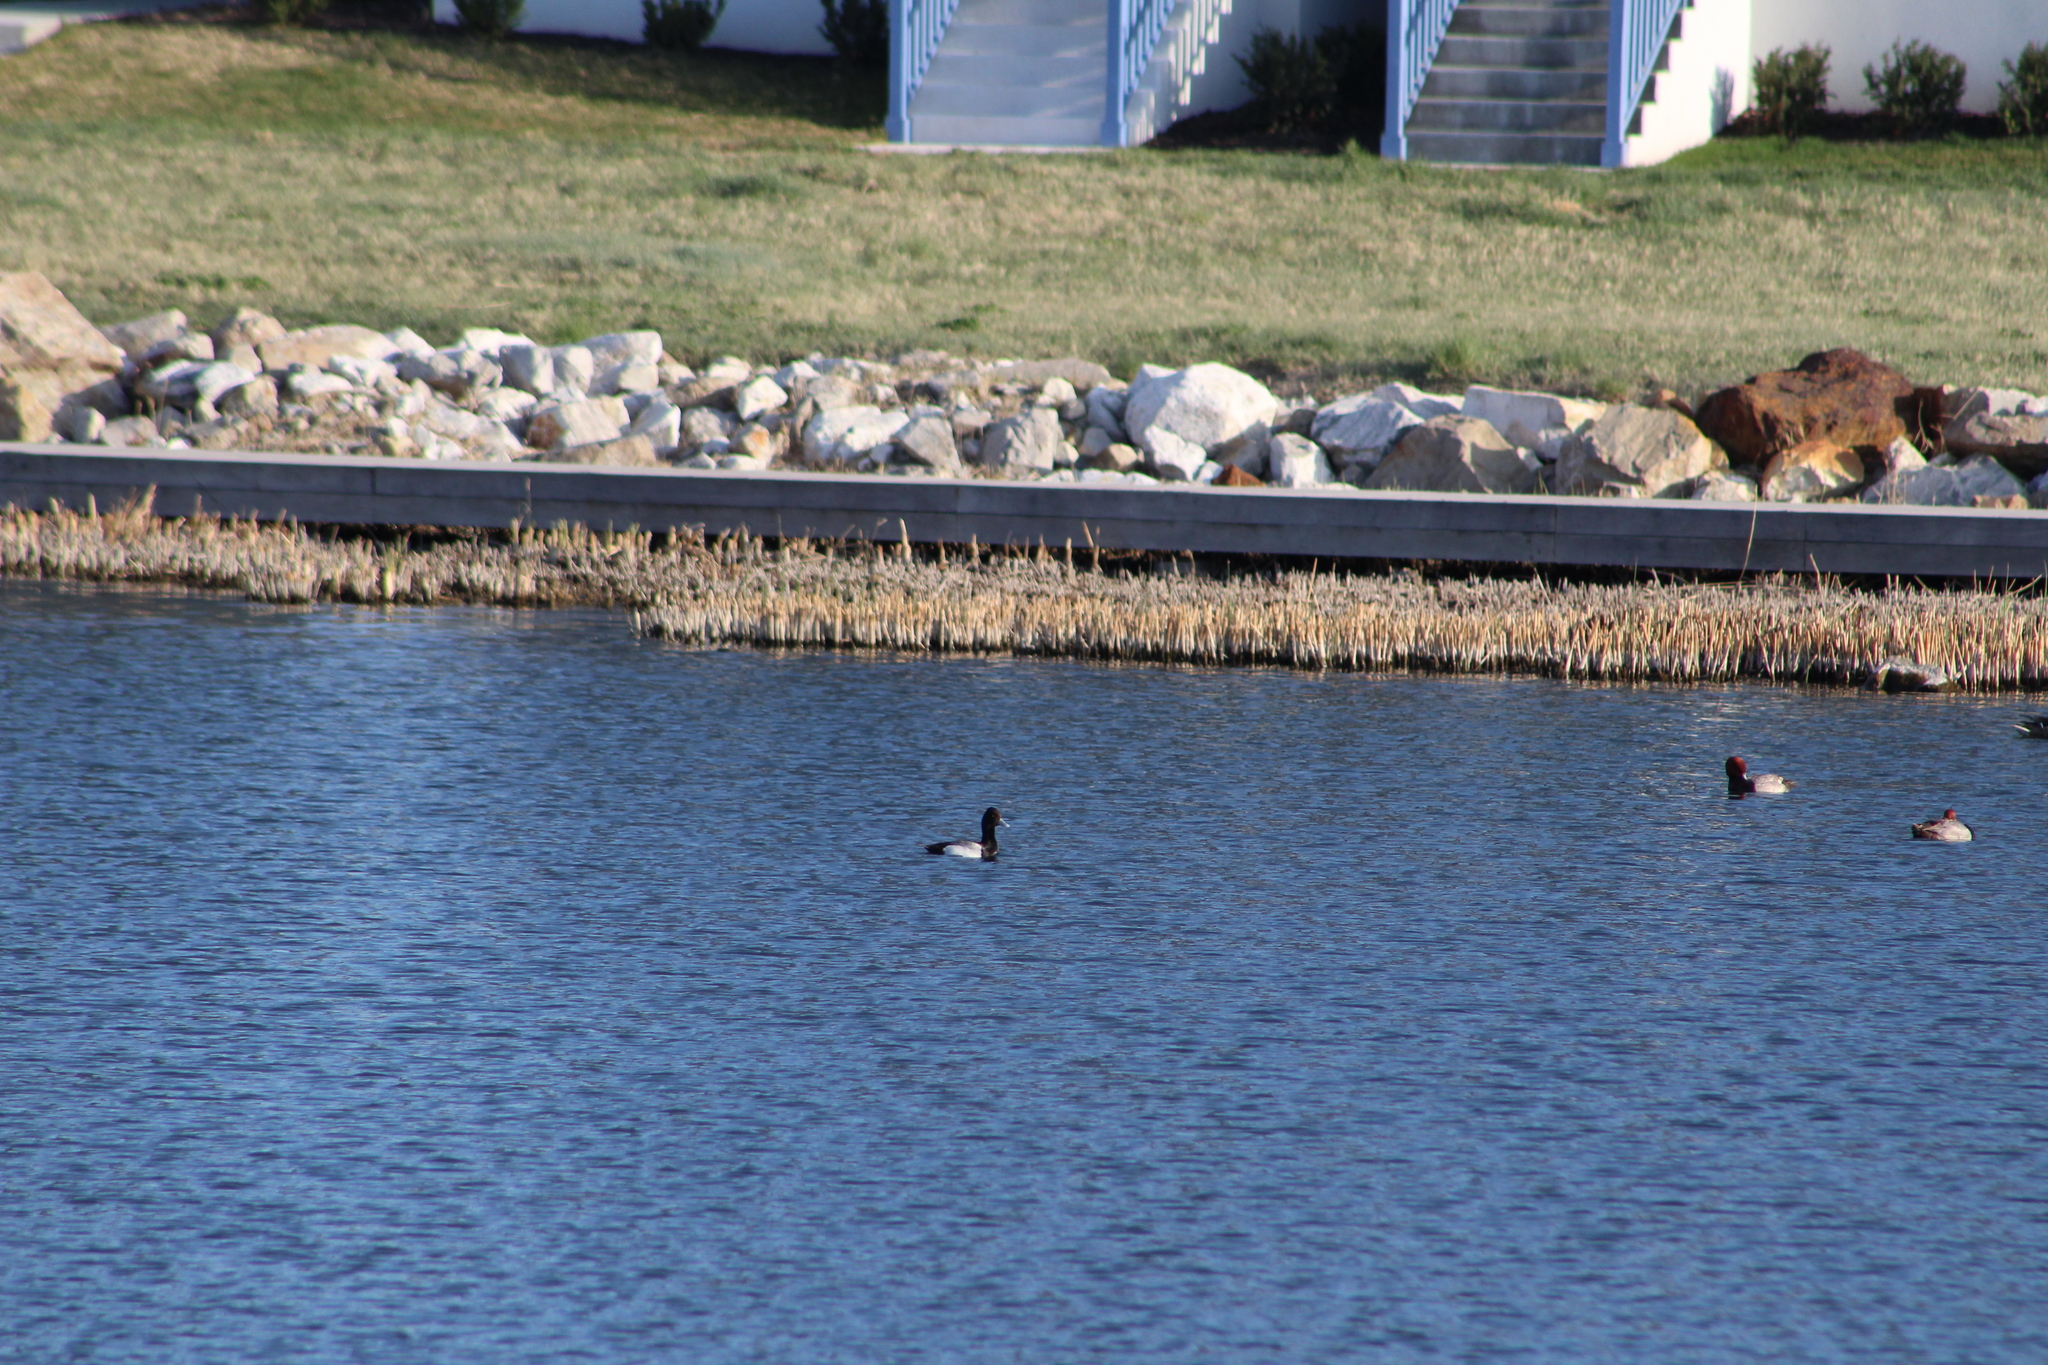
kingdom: Animalia
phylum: Chordata
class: Aves
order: Anseriformes
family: Anatidae
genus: Aythya
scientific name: Aythya affinis
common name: Lesser scaup
